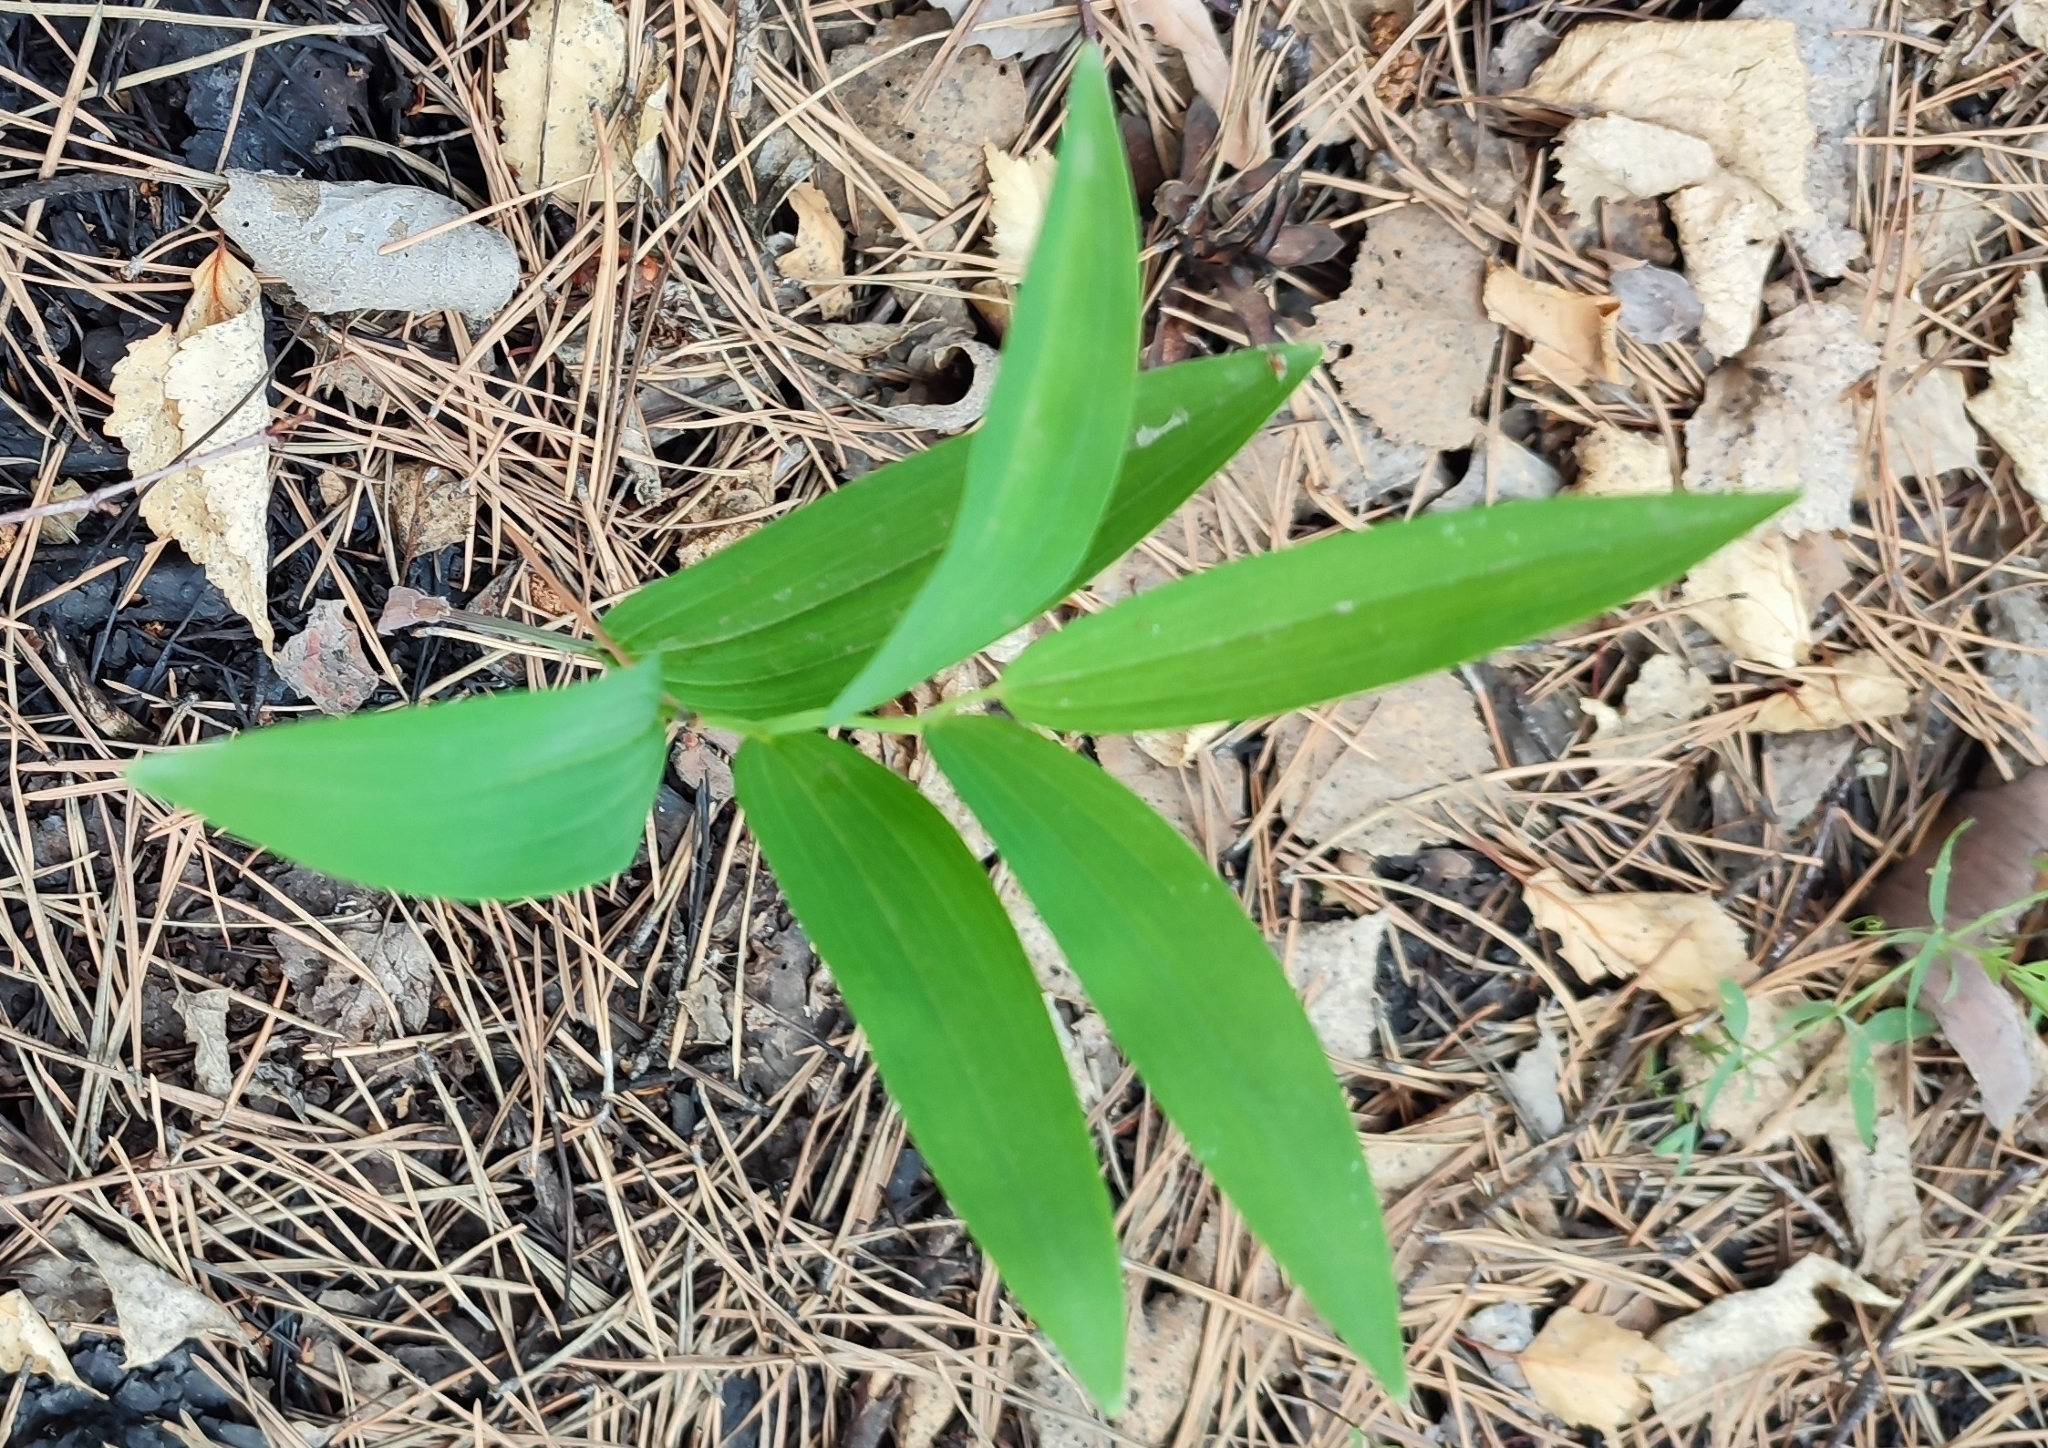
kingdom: Plantae
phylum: Tracheophyta
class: Liliopsida
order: Asparagales
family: Asparagaceae
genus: Polygonatum
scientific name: Polygonatum odoratum
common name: Angular solomon's-seal
